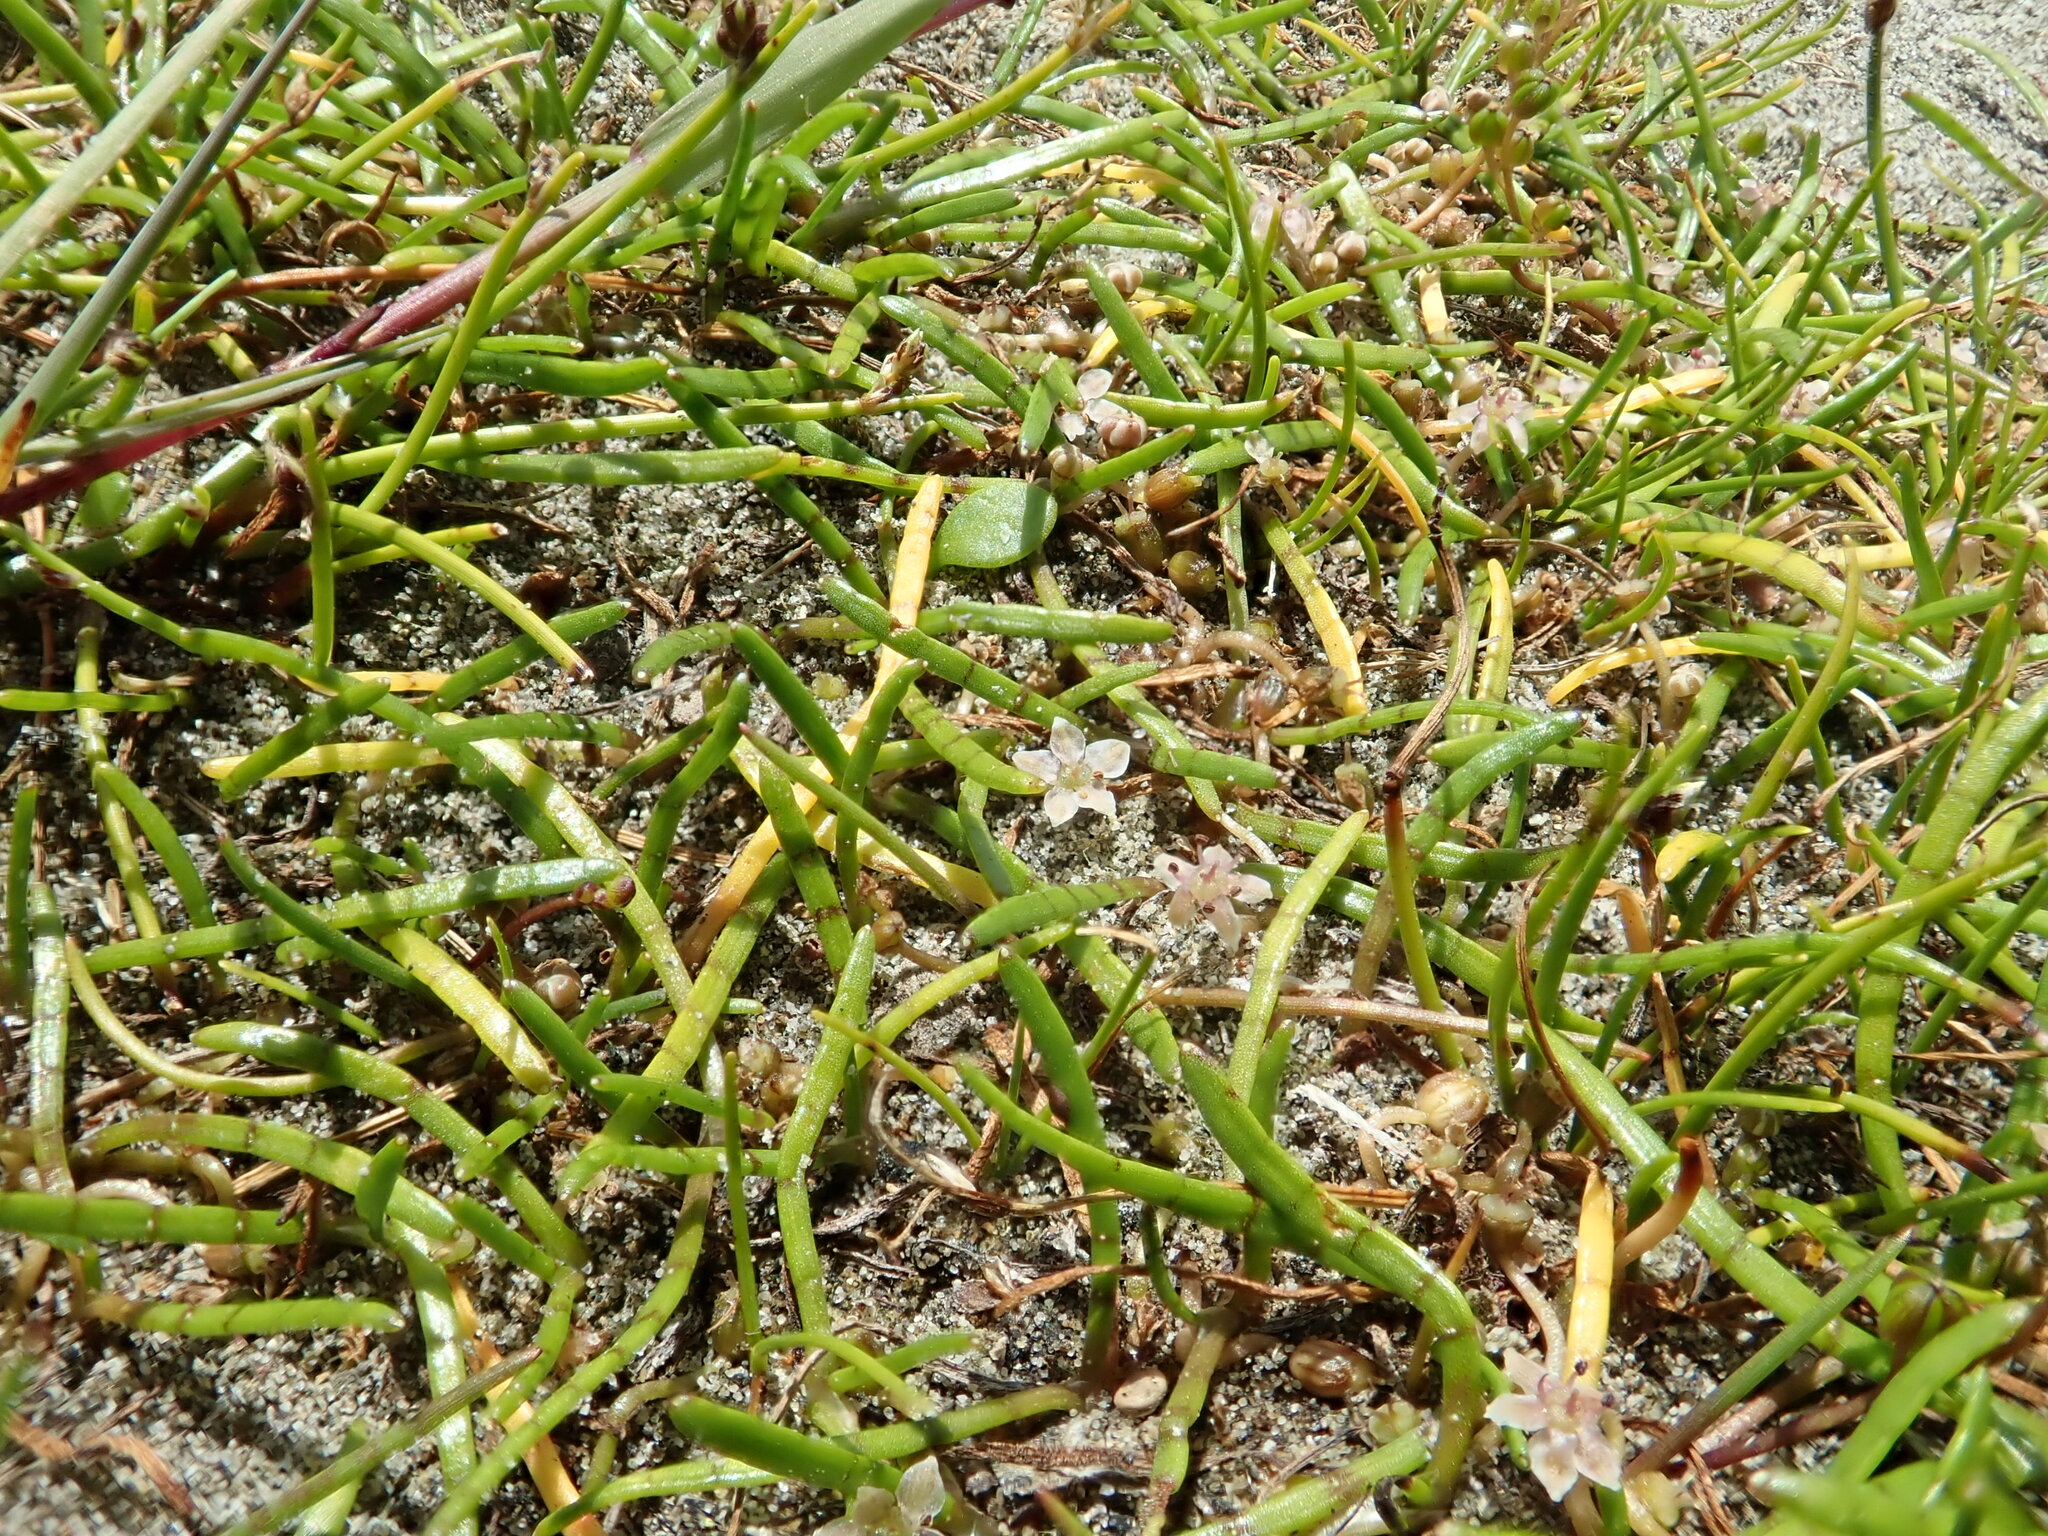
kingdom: Plantae
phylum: Tracheophyta
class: Magnoliopsida
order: Apiales
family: Apiaceae
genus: Lilaeopsis
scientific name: Lilaeopsis novae-zelandiae
